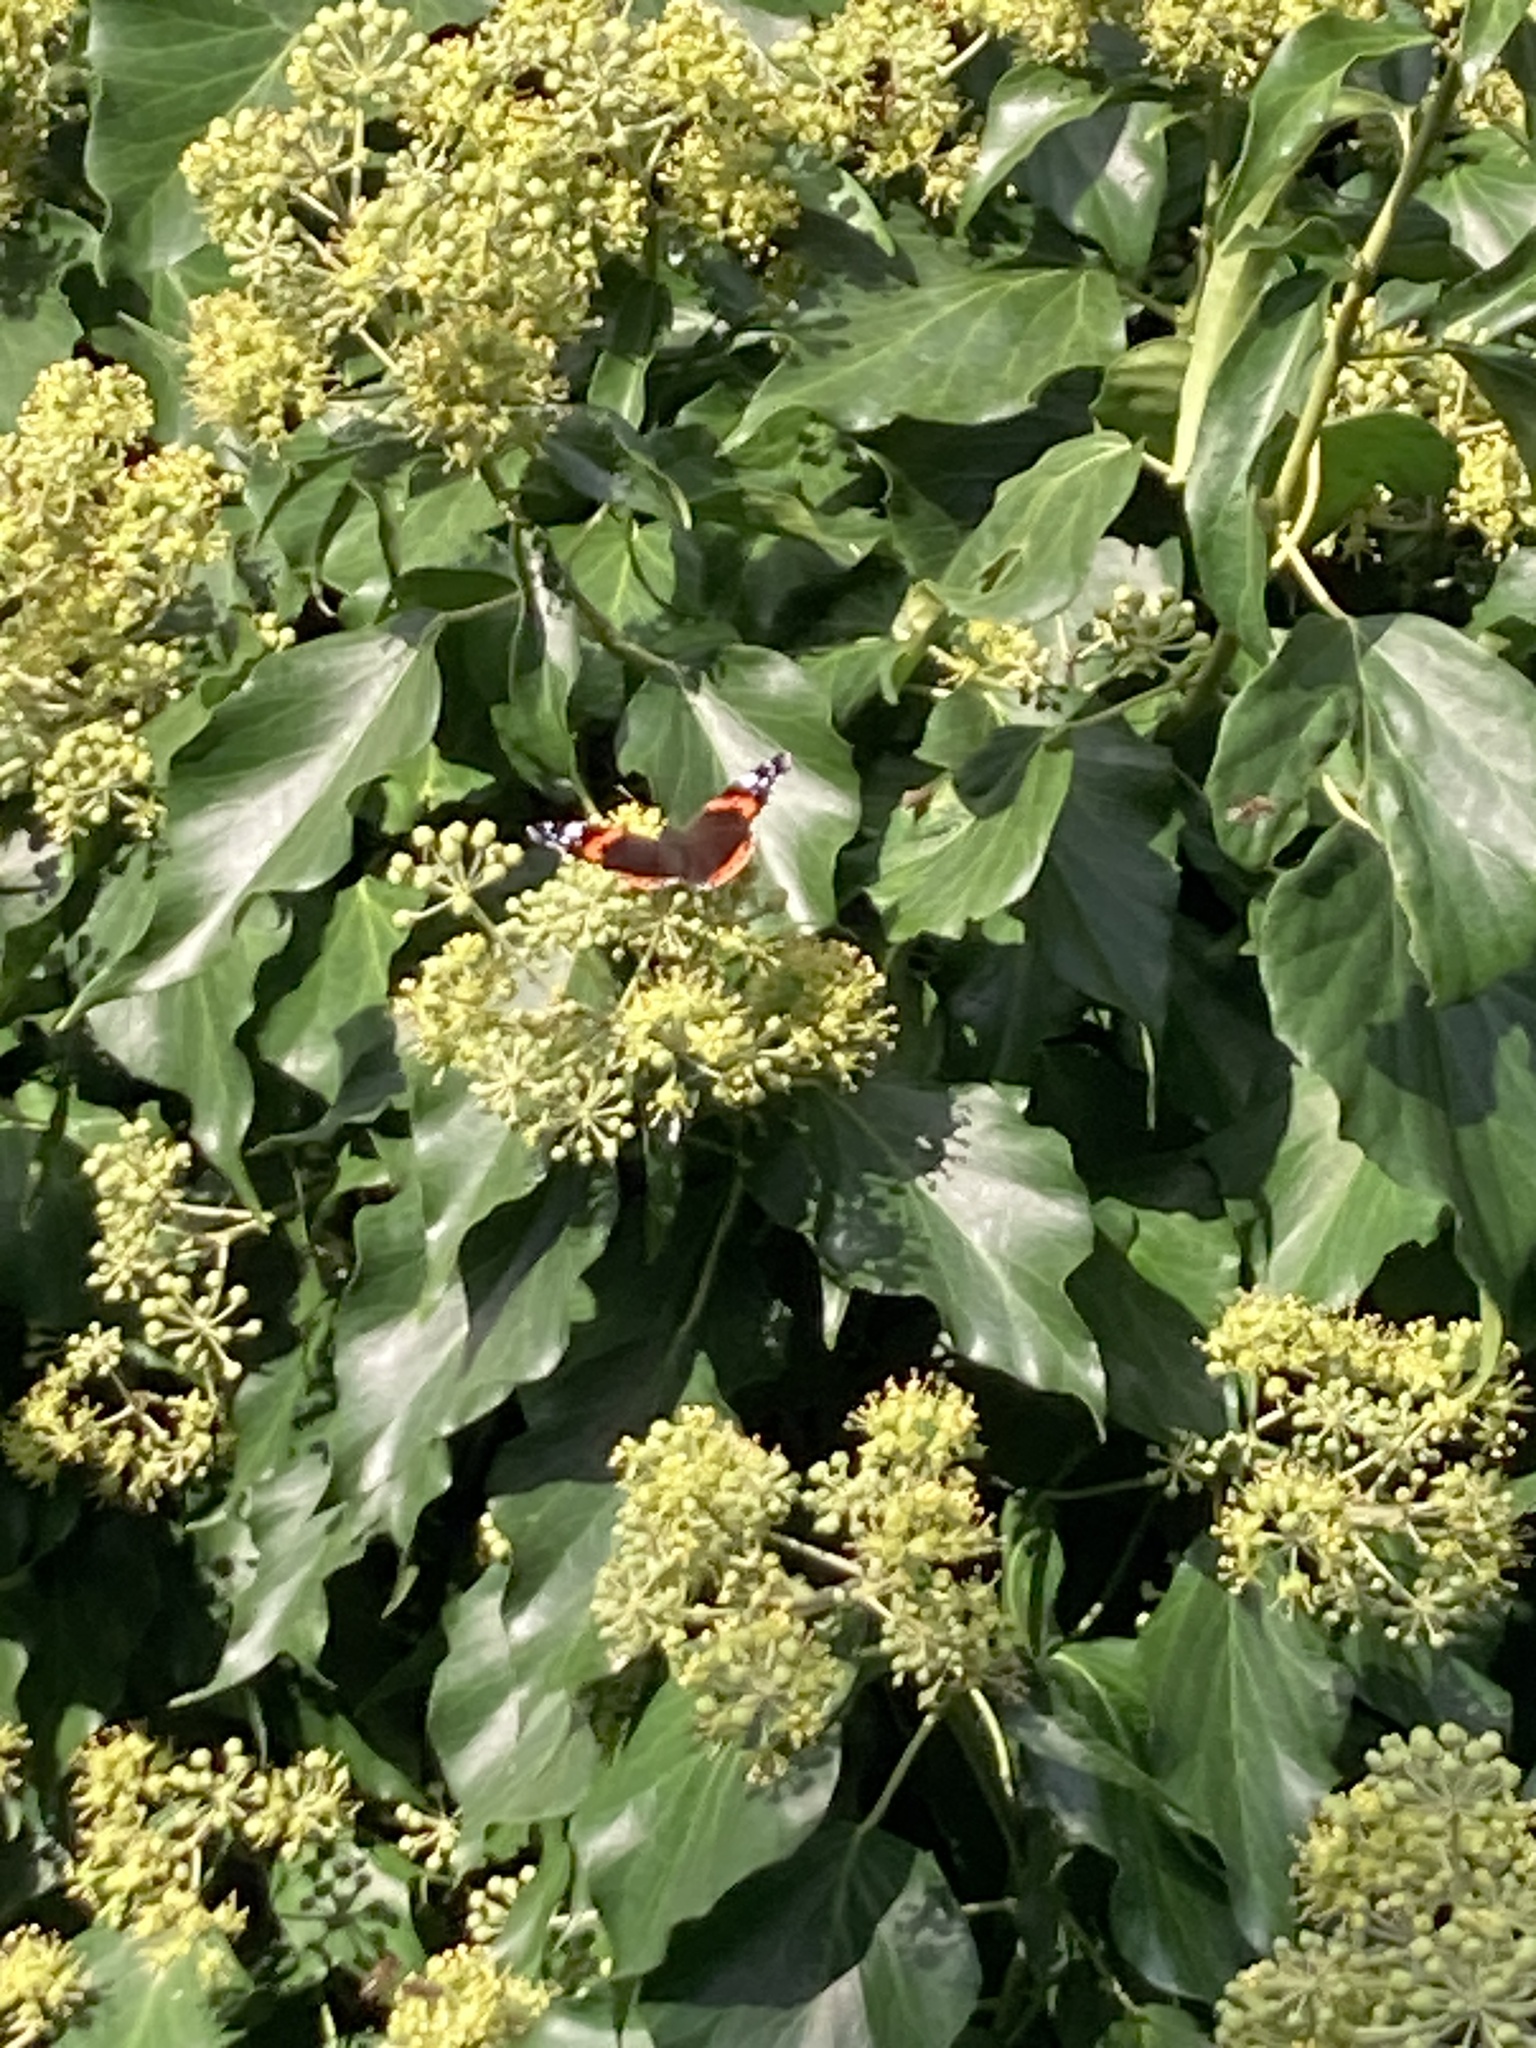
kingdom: Animalia
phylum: Arthropoda
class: Insecta
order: Lepidoptera
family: Nymphalidae
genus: Vanessa
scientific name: Vanessa atalanta
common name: Red admiral
